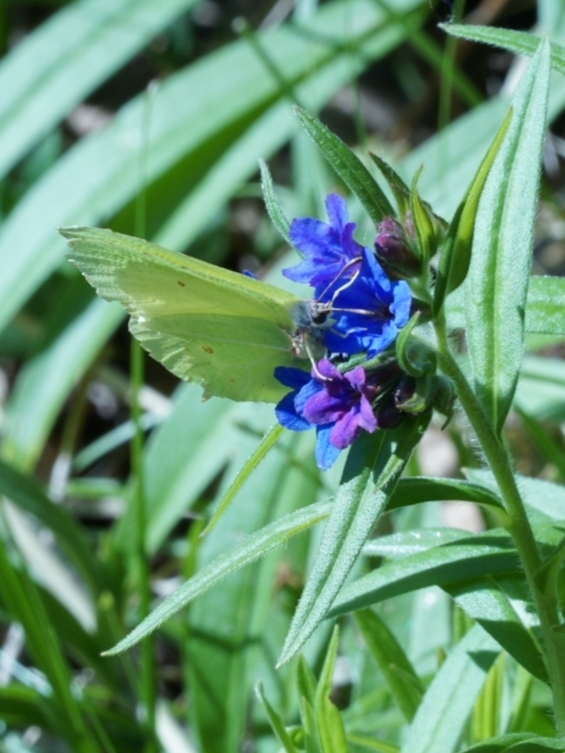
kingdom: Animalia
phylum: Arthropoda
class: Insecta
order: Lepidoptera
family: Pieridae
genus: Gonepteryx
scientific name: Gonepteryx rhamni
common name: Brimstone
